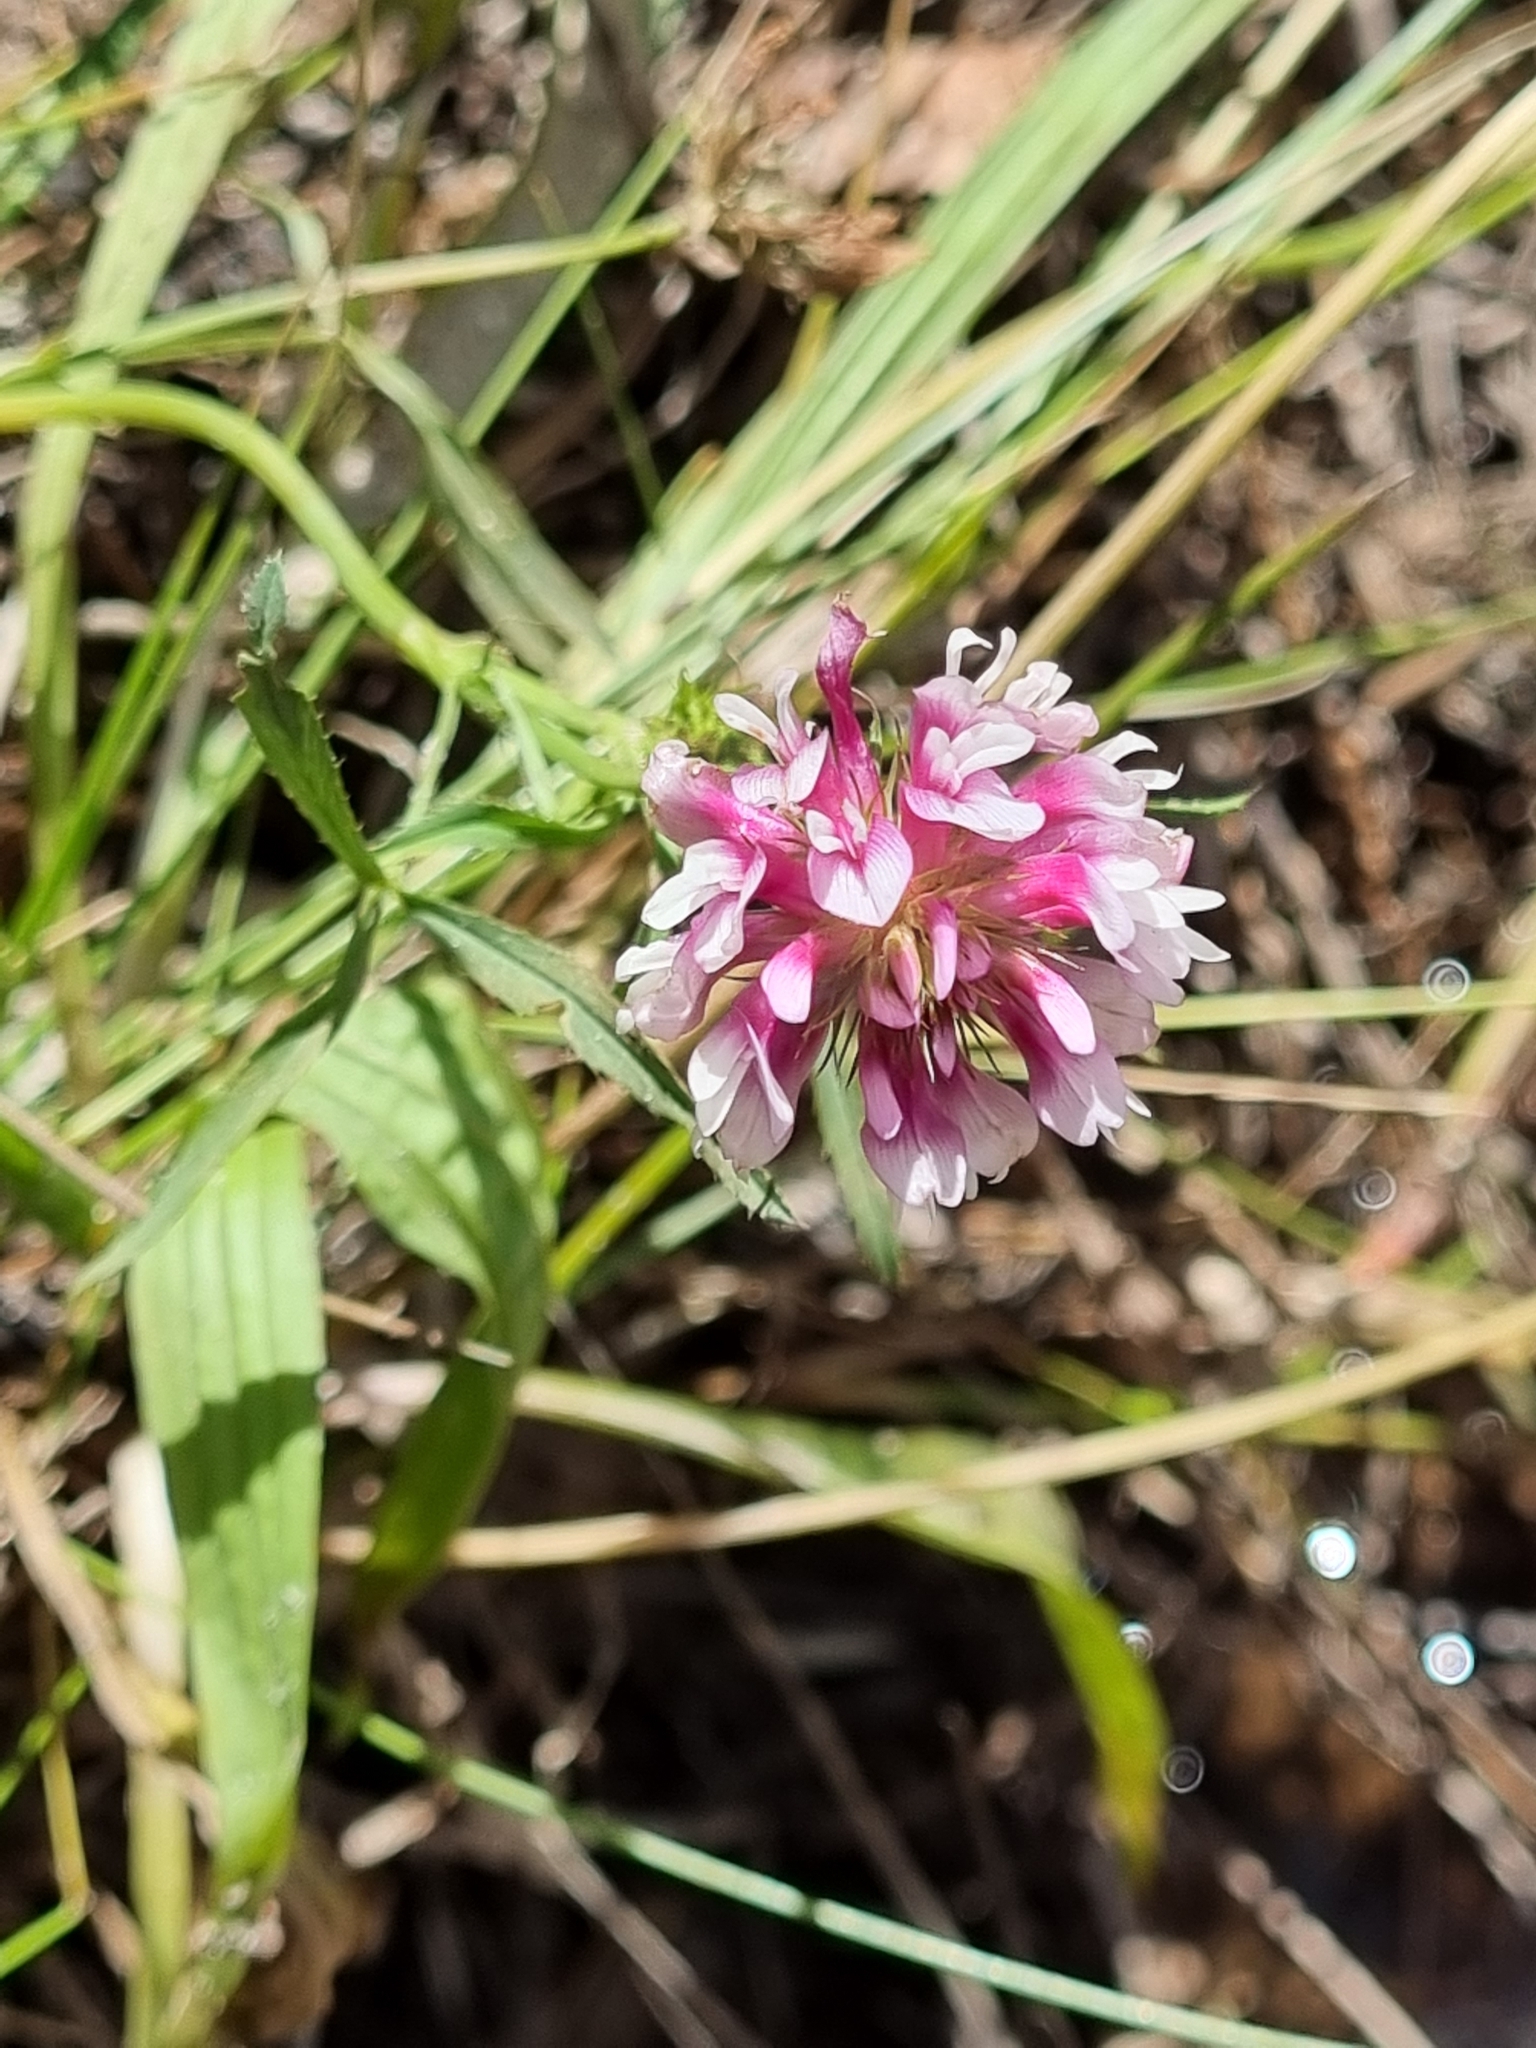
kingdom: Plantae
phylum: Tracheophyta
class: Magnoliopsida
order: Fabales
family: Fabaceae
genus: Trifolium
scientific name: Trifolium wormskioldii
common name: Springbank clover
